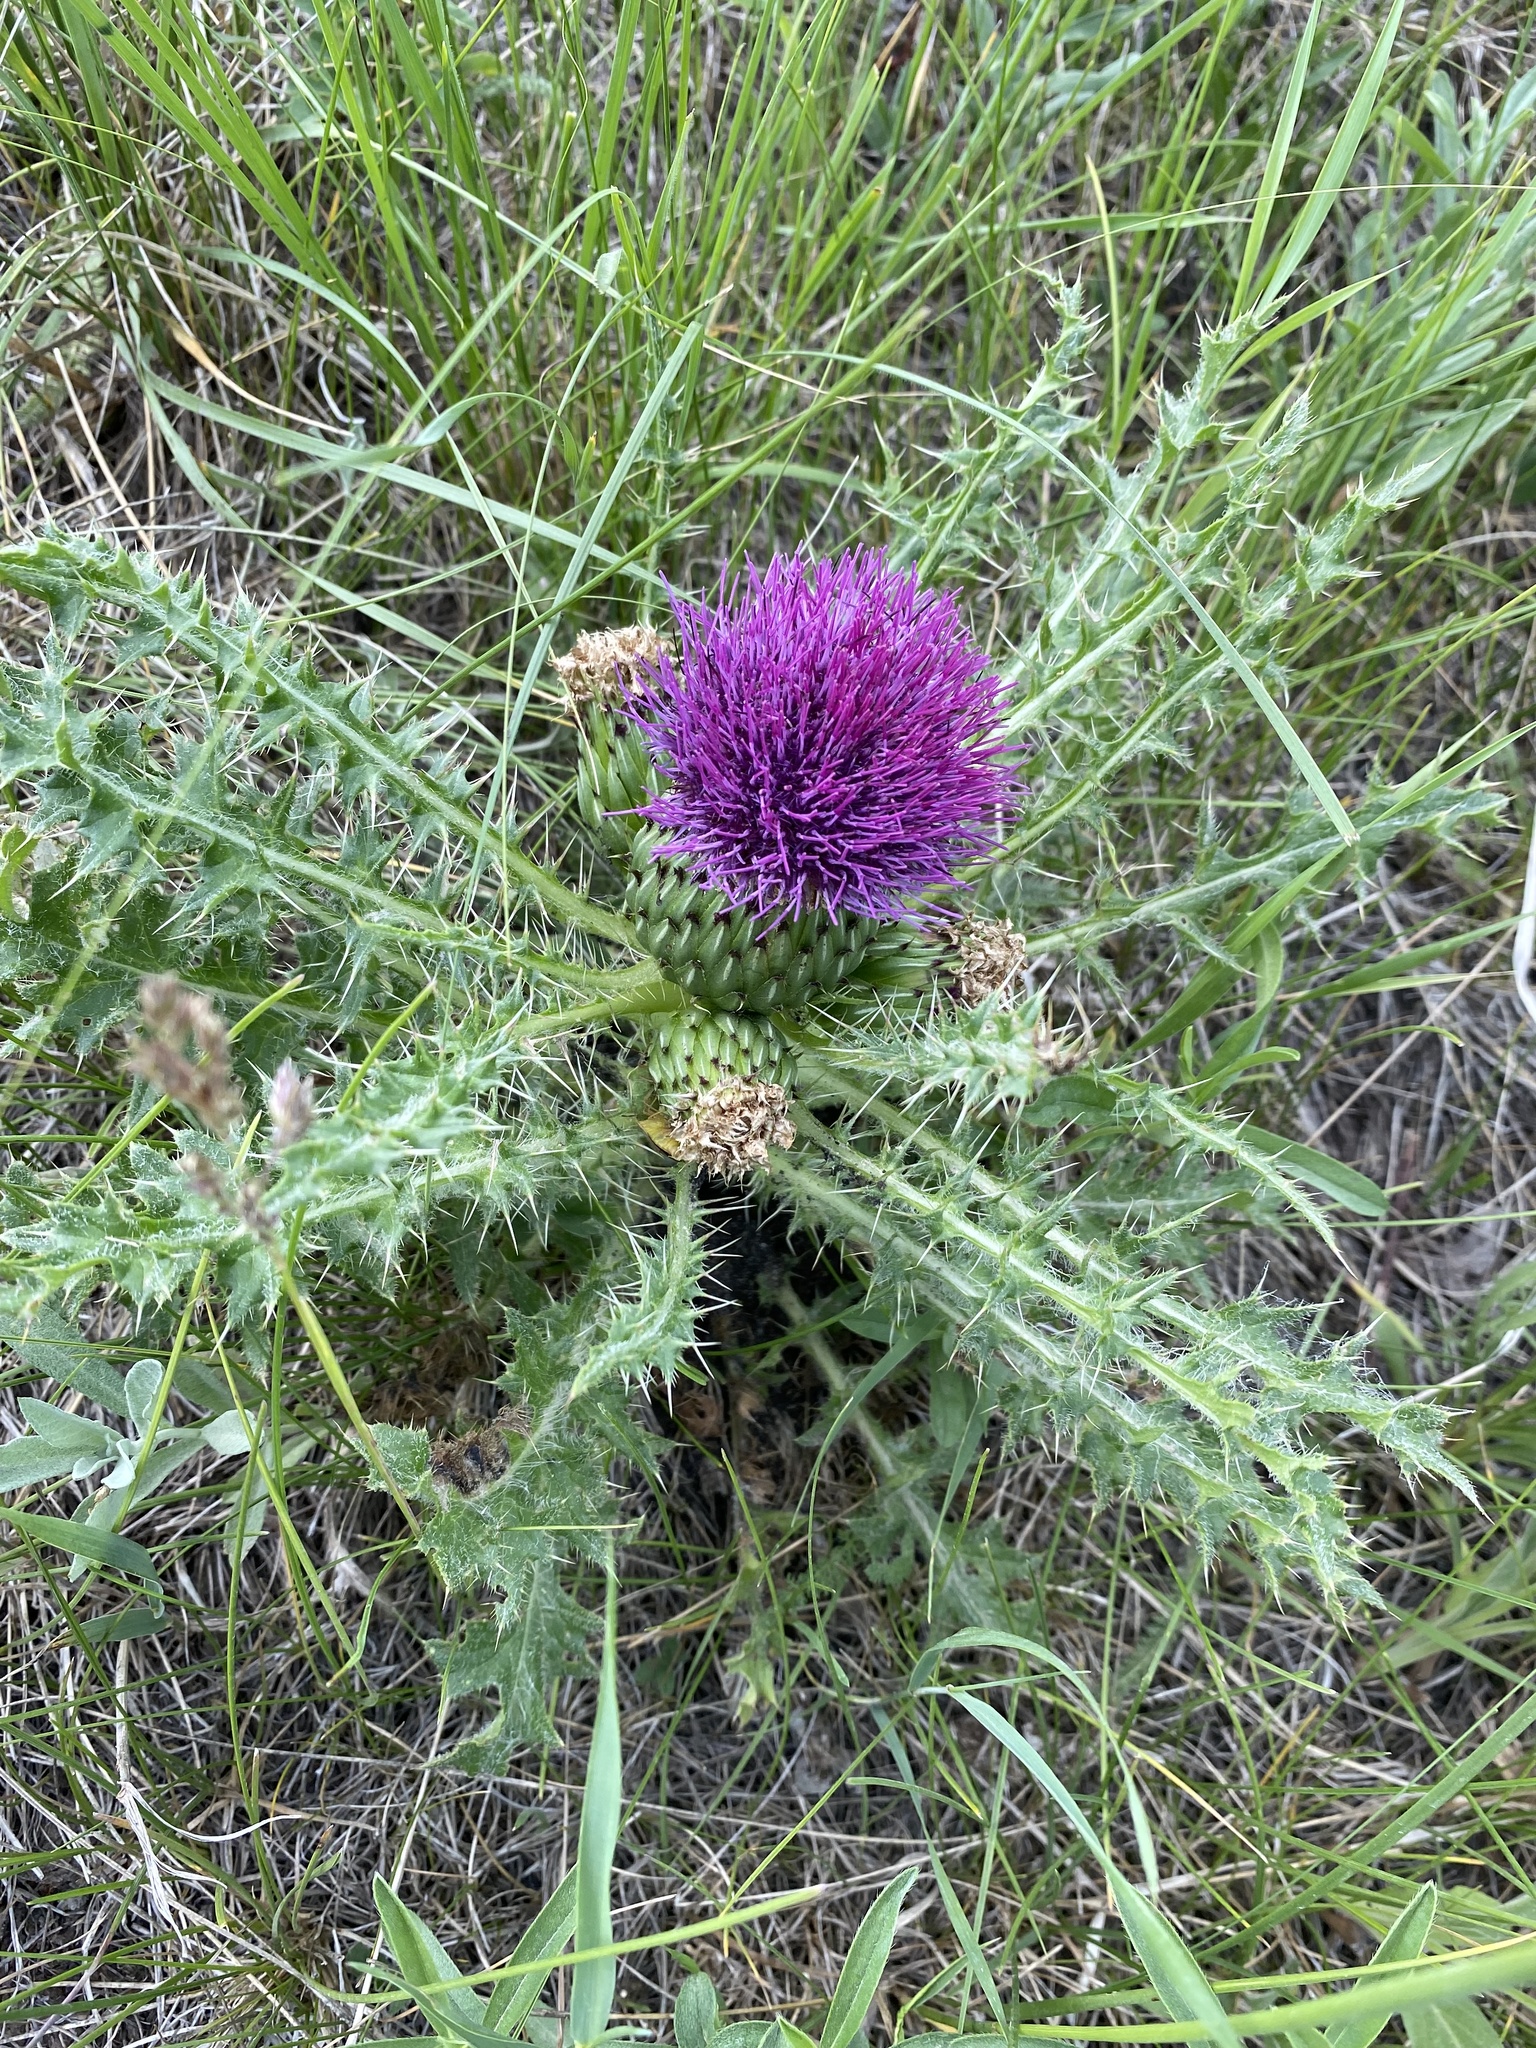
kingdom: Plantae
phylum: Tracheophyta
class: Magnoliopsida
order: Asterales
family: Asteraceae
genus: Cirsium
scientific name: Cirsium drummondii
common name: Drummond's thistle
